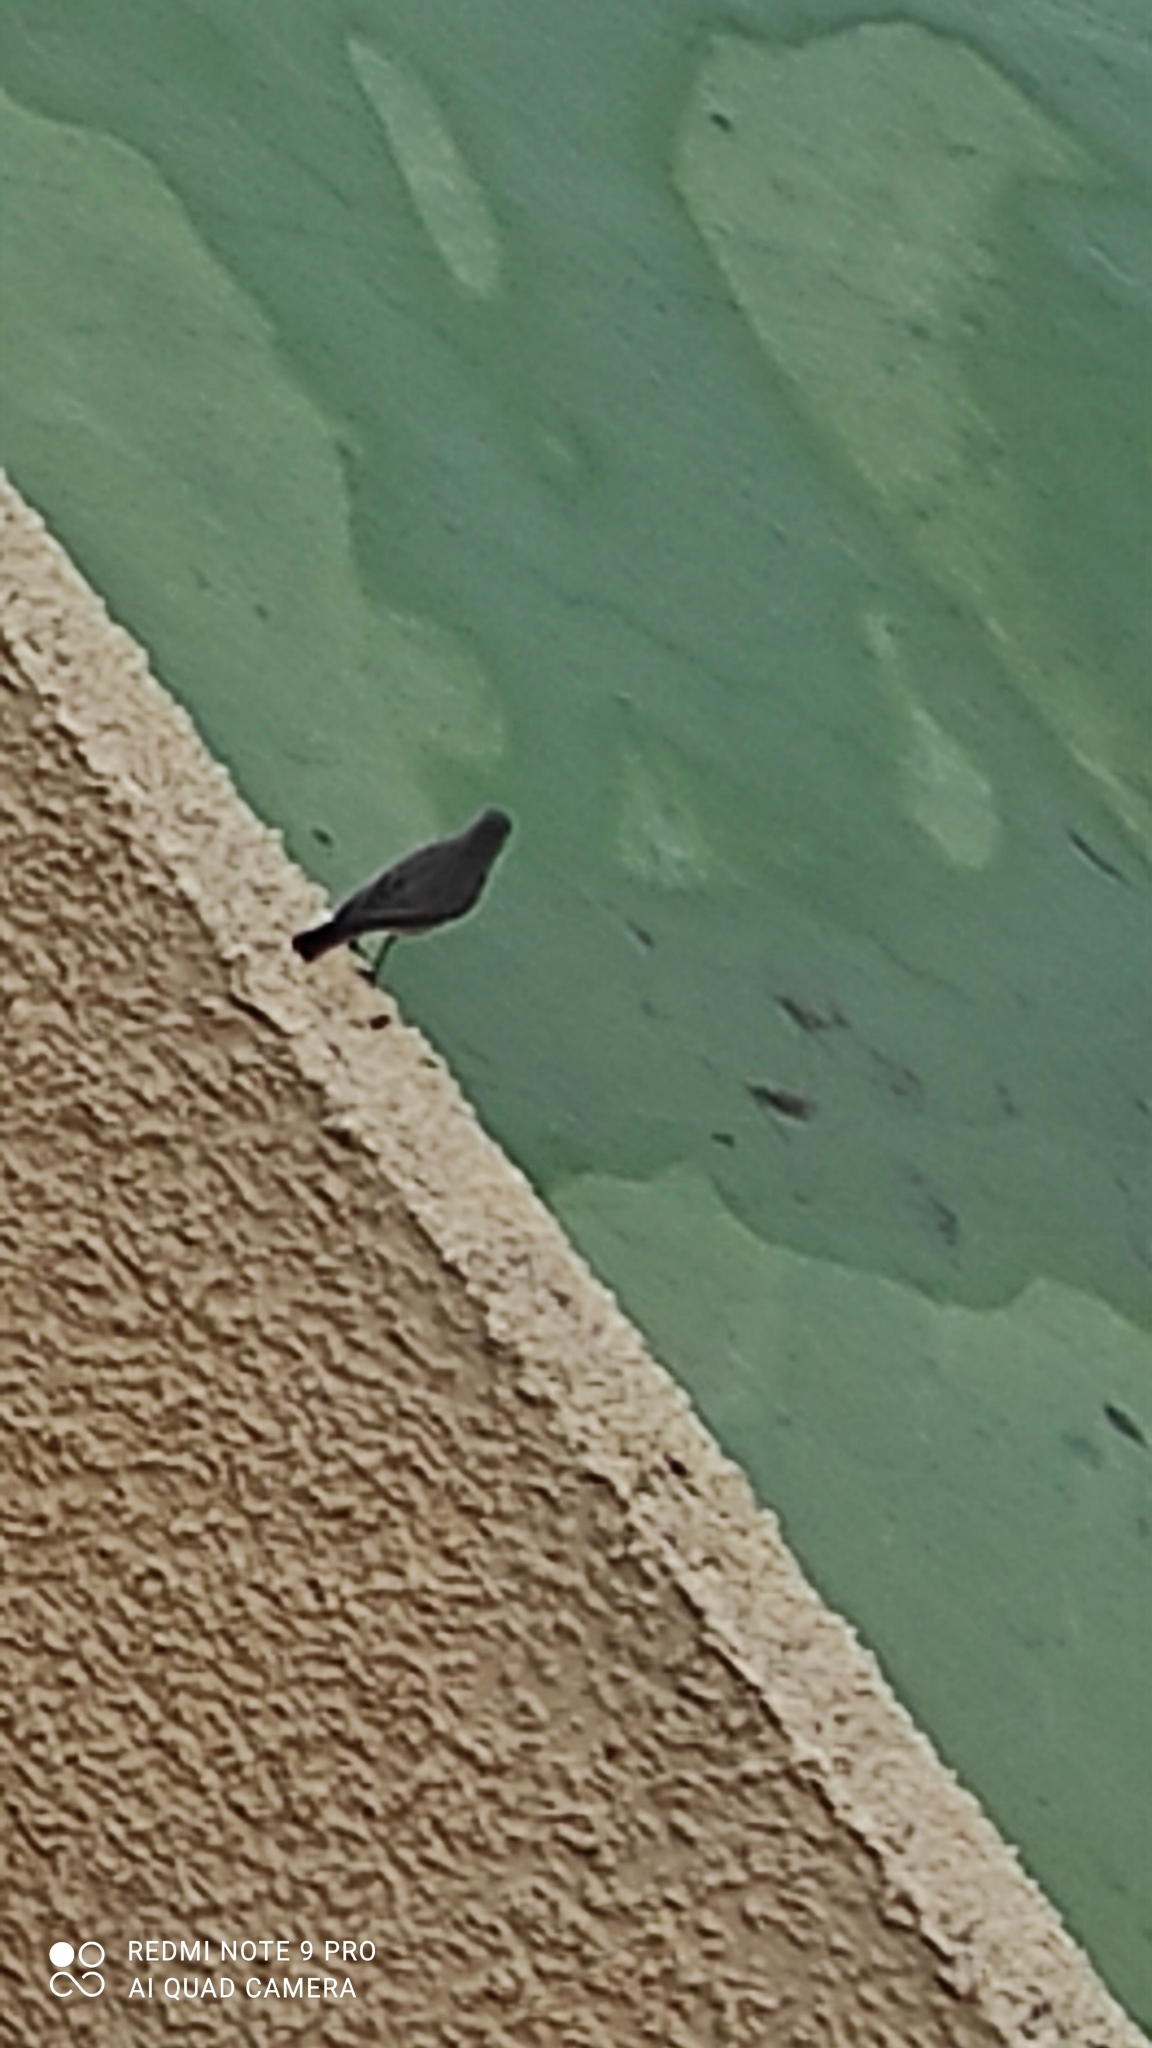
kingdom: Animalia
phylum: Chordata
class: Aves
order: Passeriformes
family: Muscicapidae
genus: Phoenicurus
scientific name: Phoenicurus ochruros
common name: Black redstart
